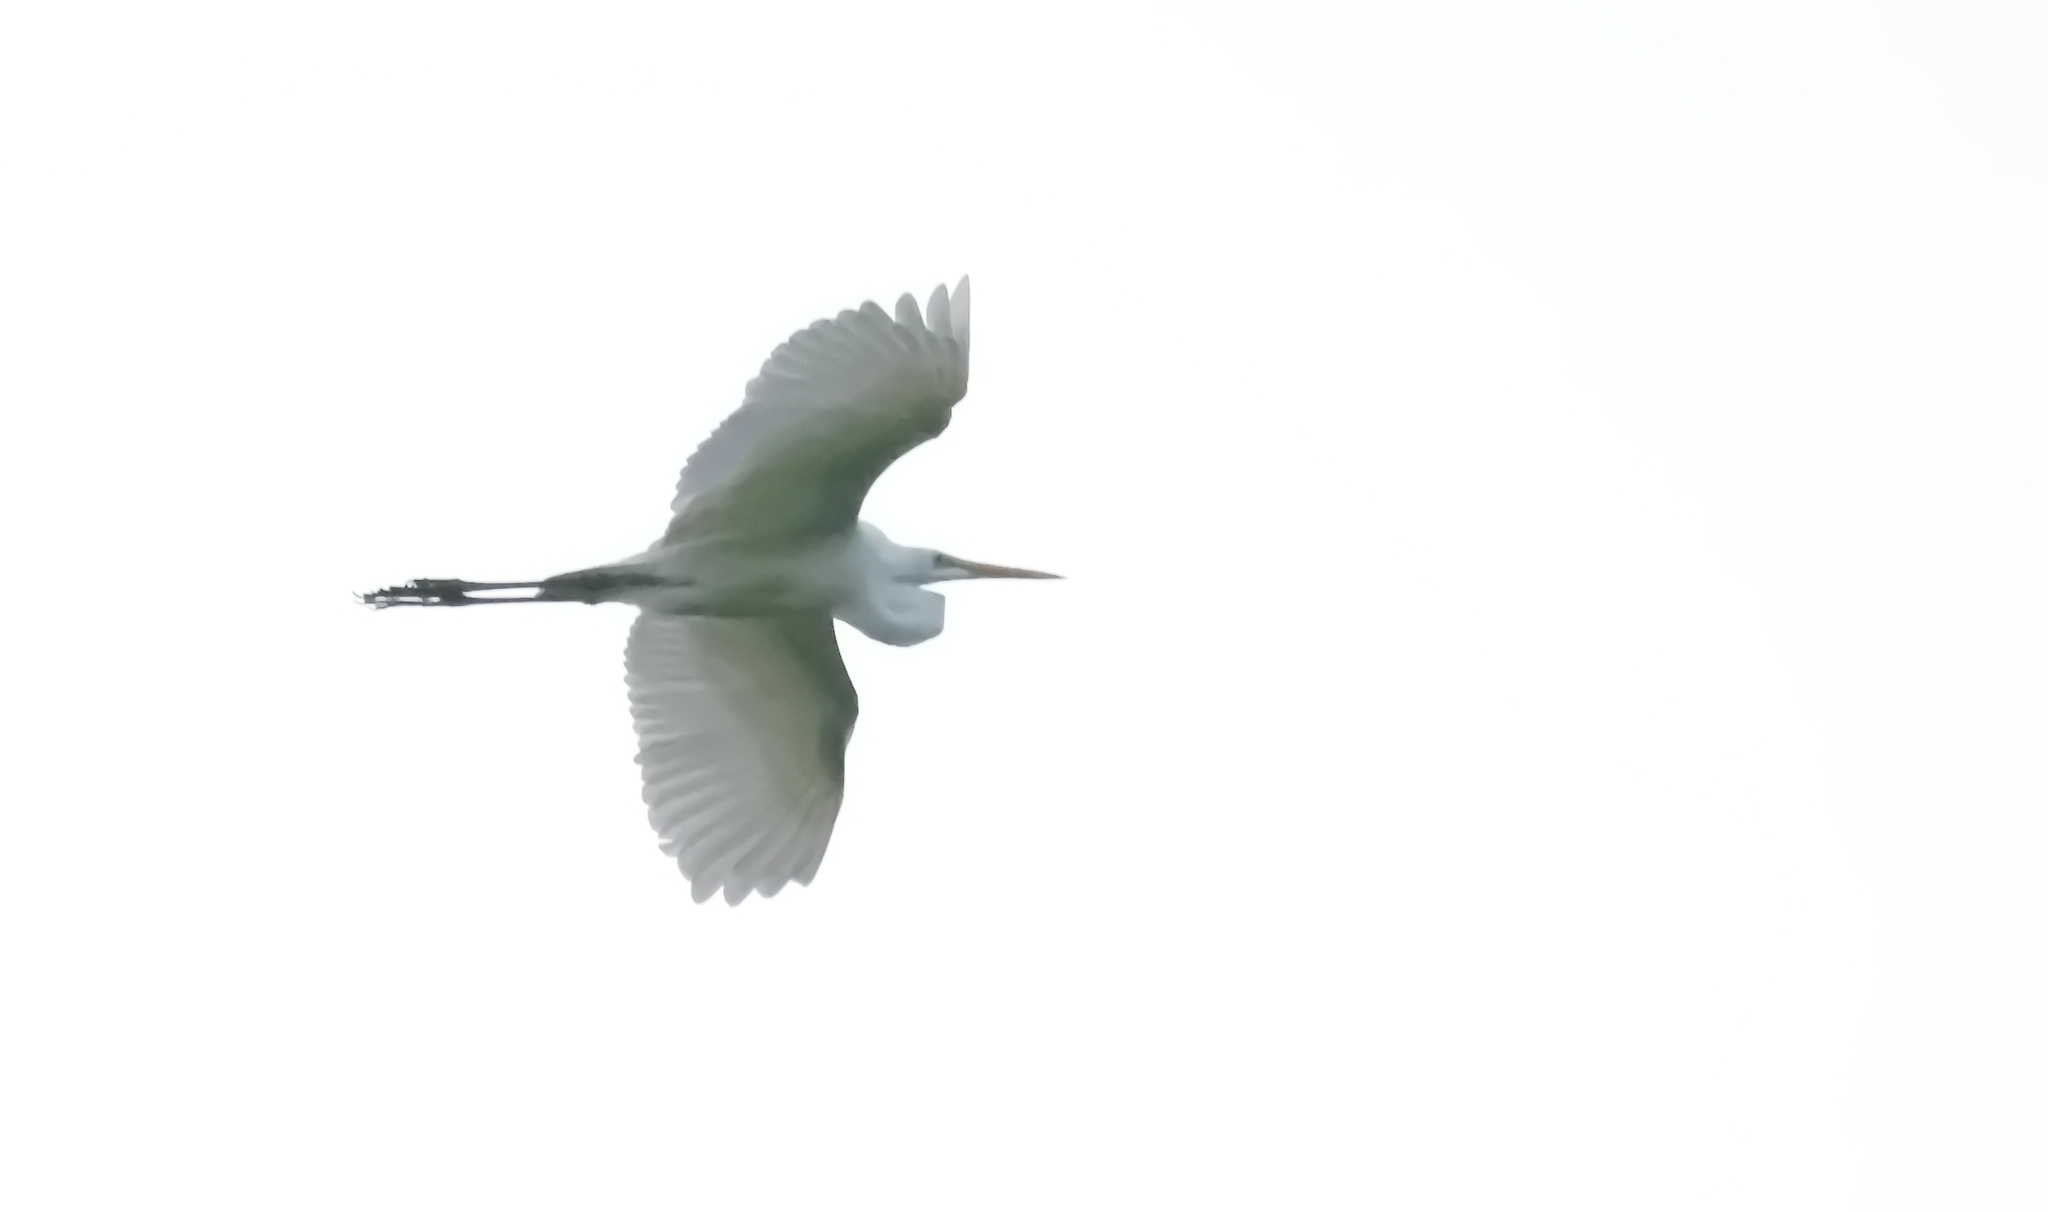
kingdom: Animalia
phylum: Chordata
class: Aves
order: Pelecaniformes
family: Ardeidae
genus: Ardea
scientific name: Ardea alba
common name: Great egret
